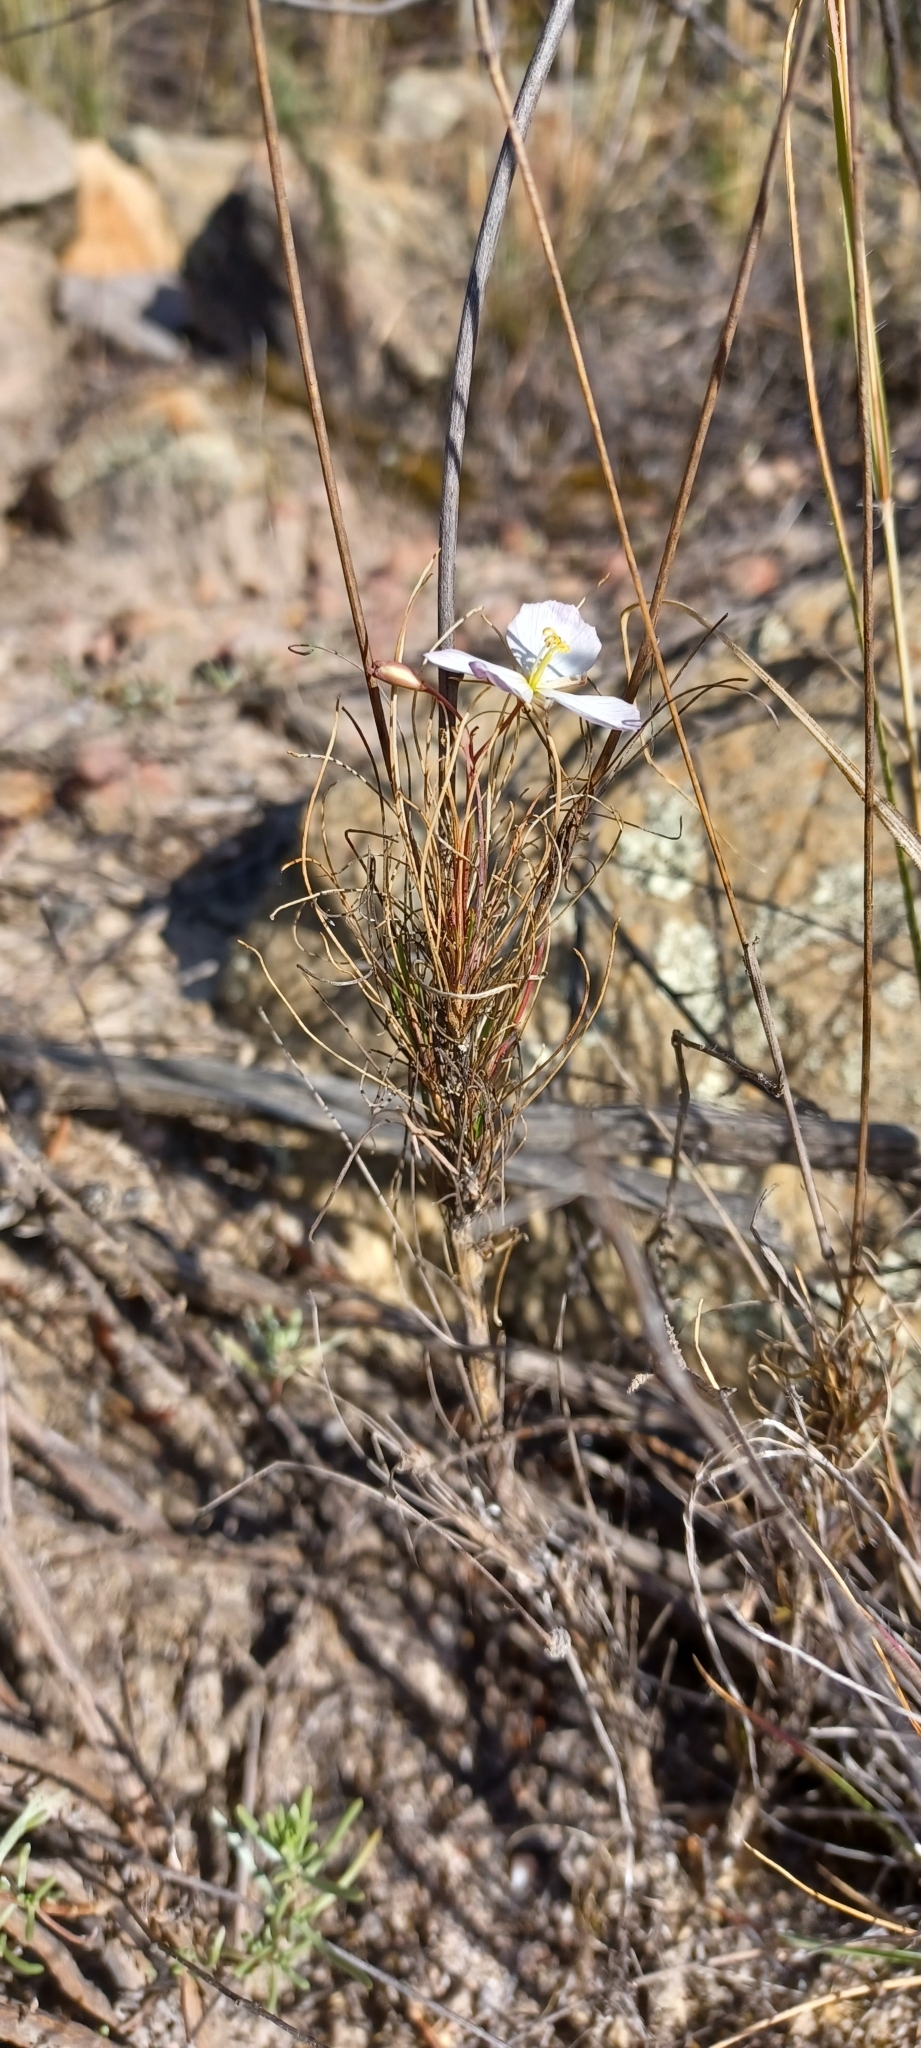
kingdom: Plantae
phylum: Tracheophyta
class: Magnoliopsida
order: Brassicales
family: Brassicaceae
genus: Heliophila
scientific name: Heliophila carnosa
